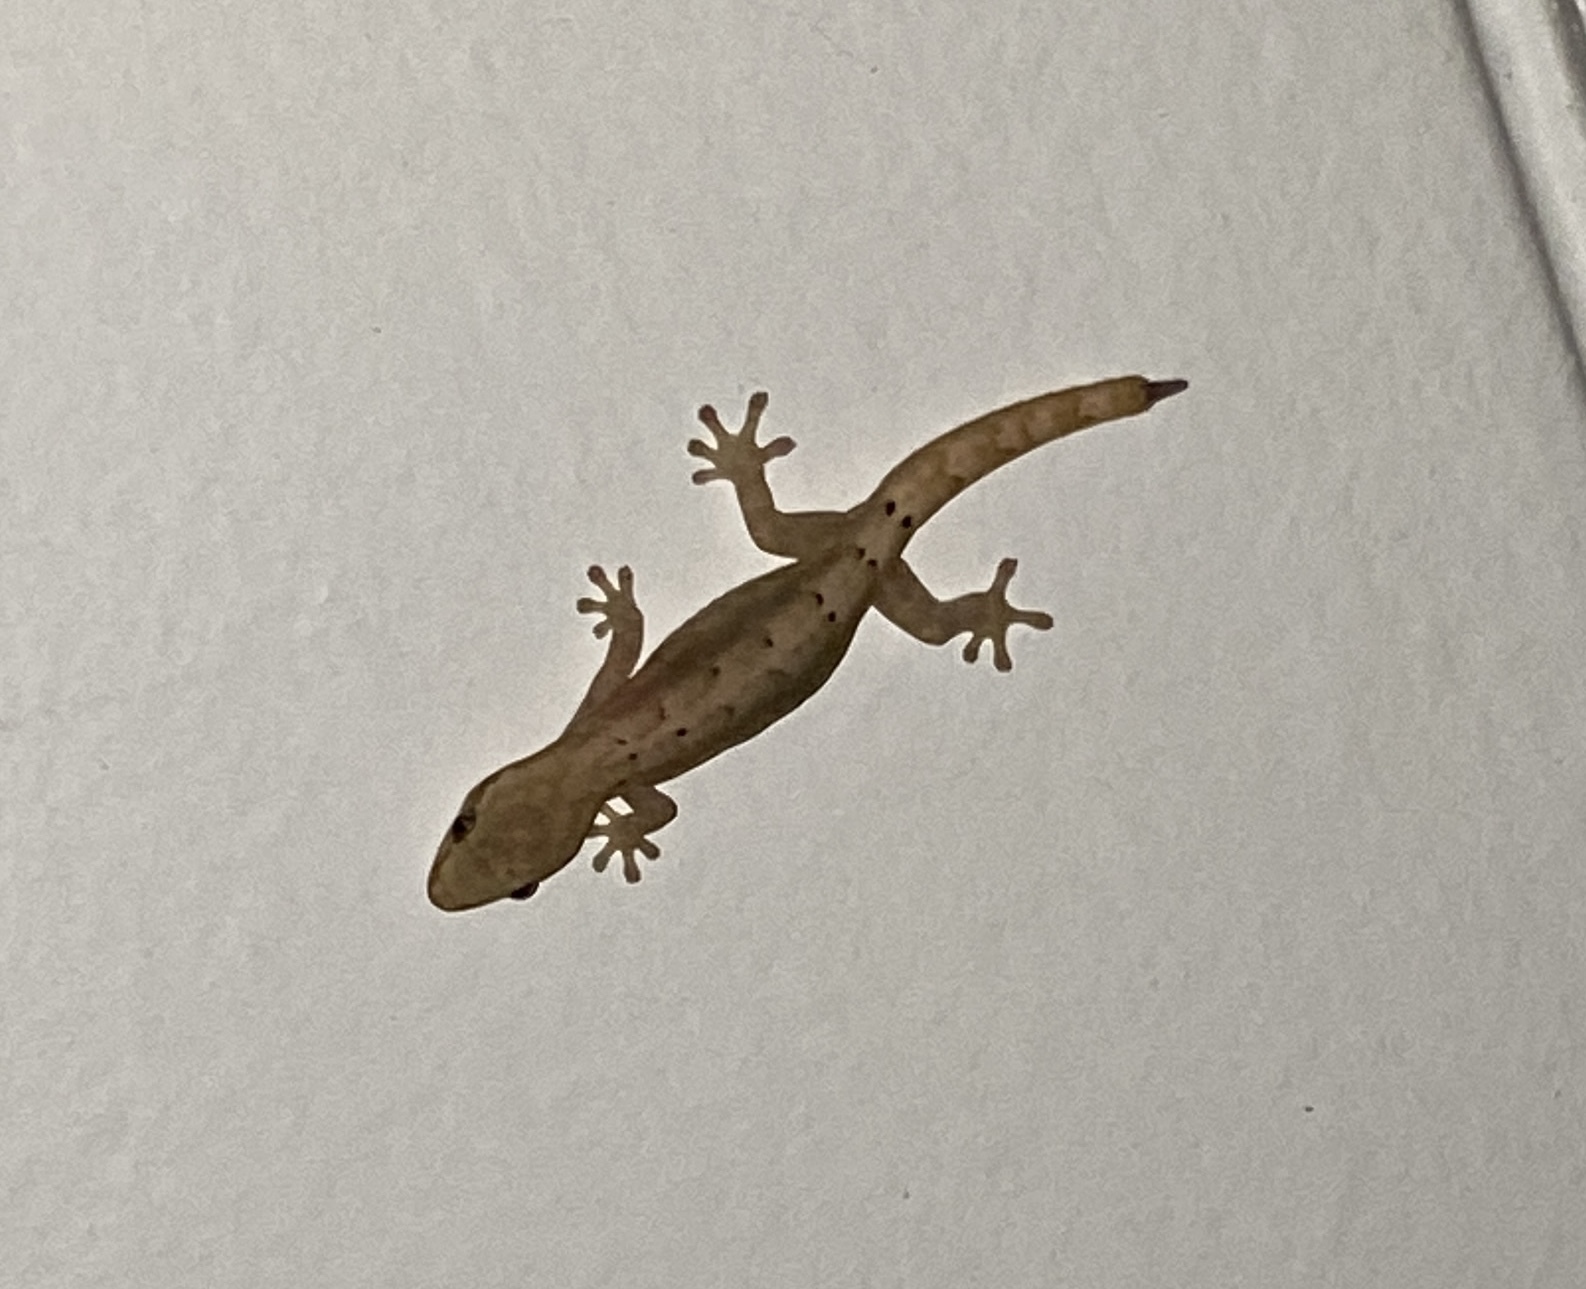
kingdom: Animalia
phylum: Chordata
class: Squamata
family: Gekkonidae
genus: Lepidodactylus
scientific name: Lepidodactylus lugubris
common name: Mourning gecko
